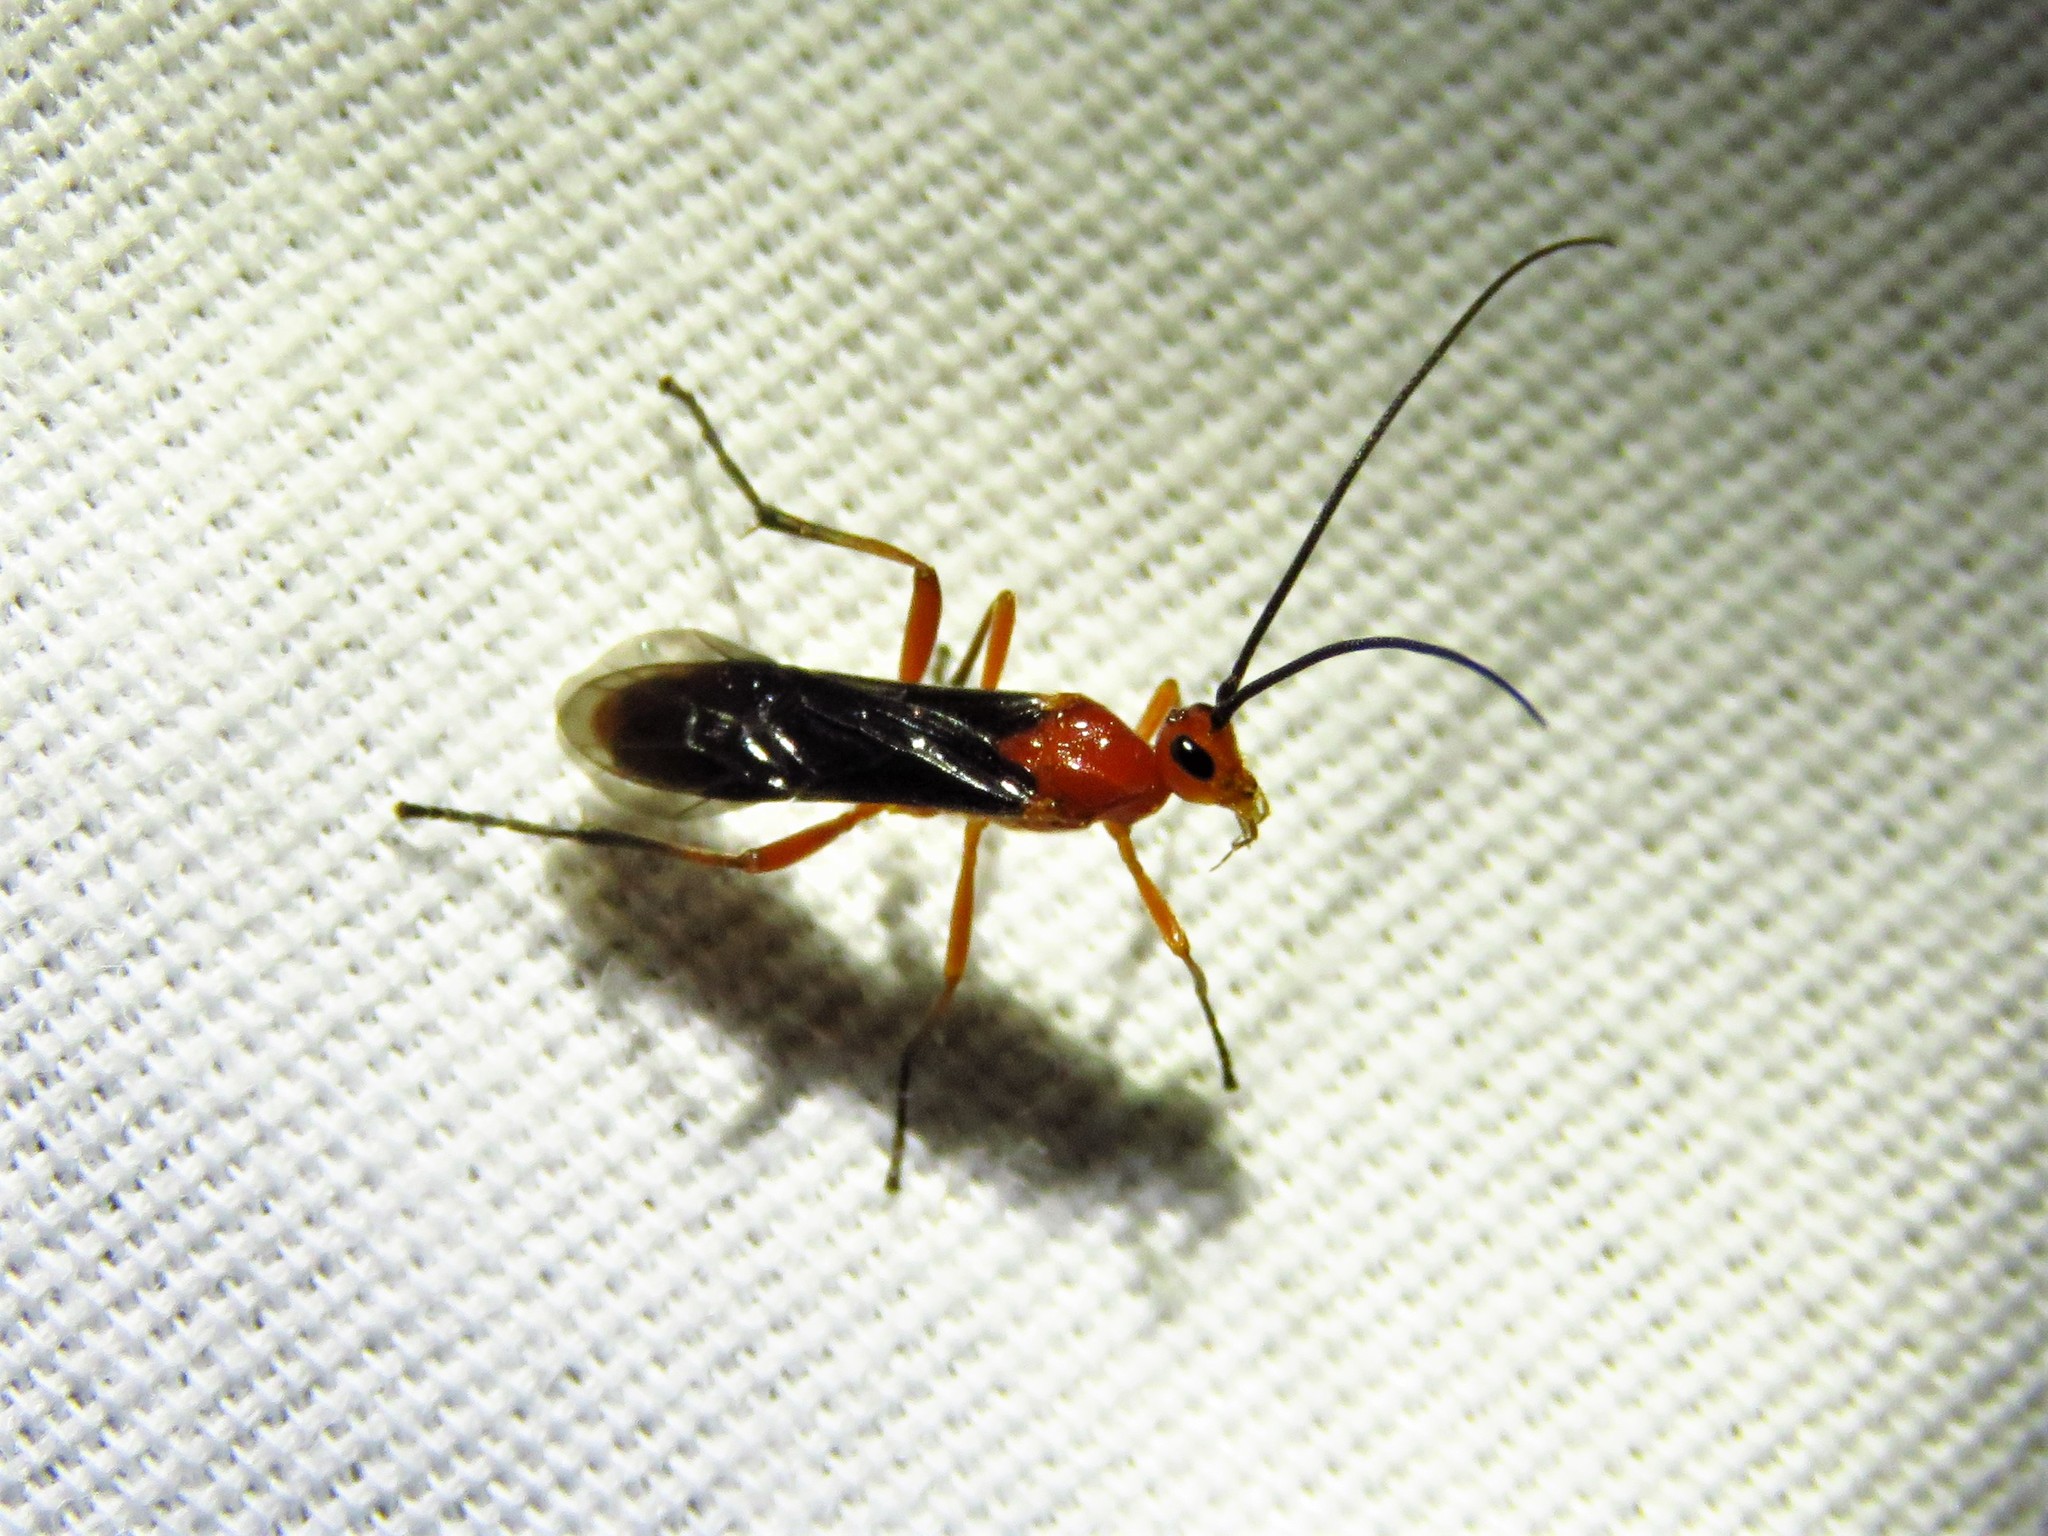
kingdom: Animalia
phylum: Arthropoda
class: Insecta
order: Hymenoptera
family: Braconidae
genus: Aleiodes
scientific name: Aleiodes politiceps
